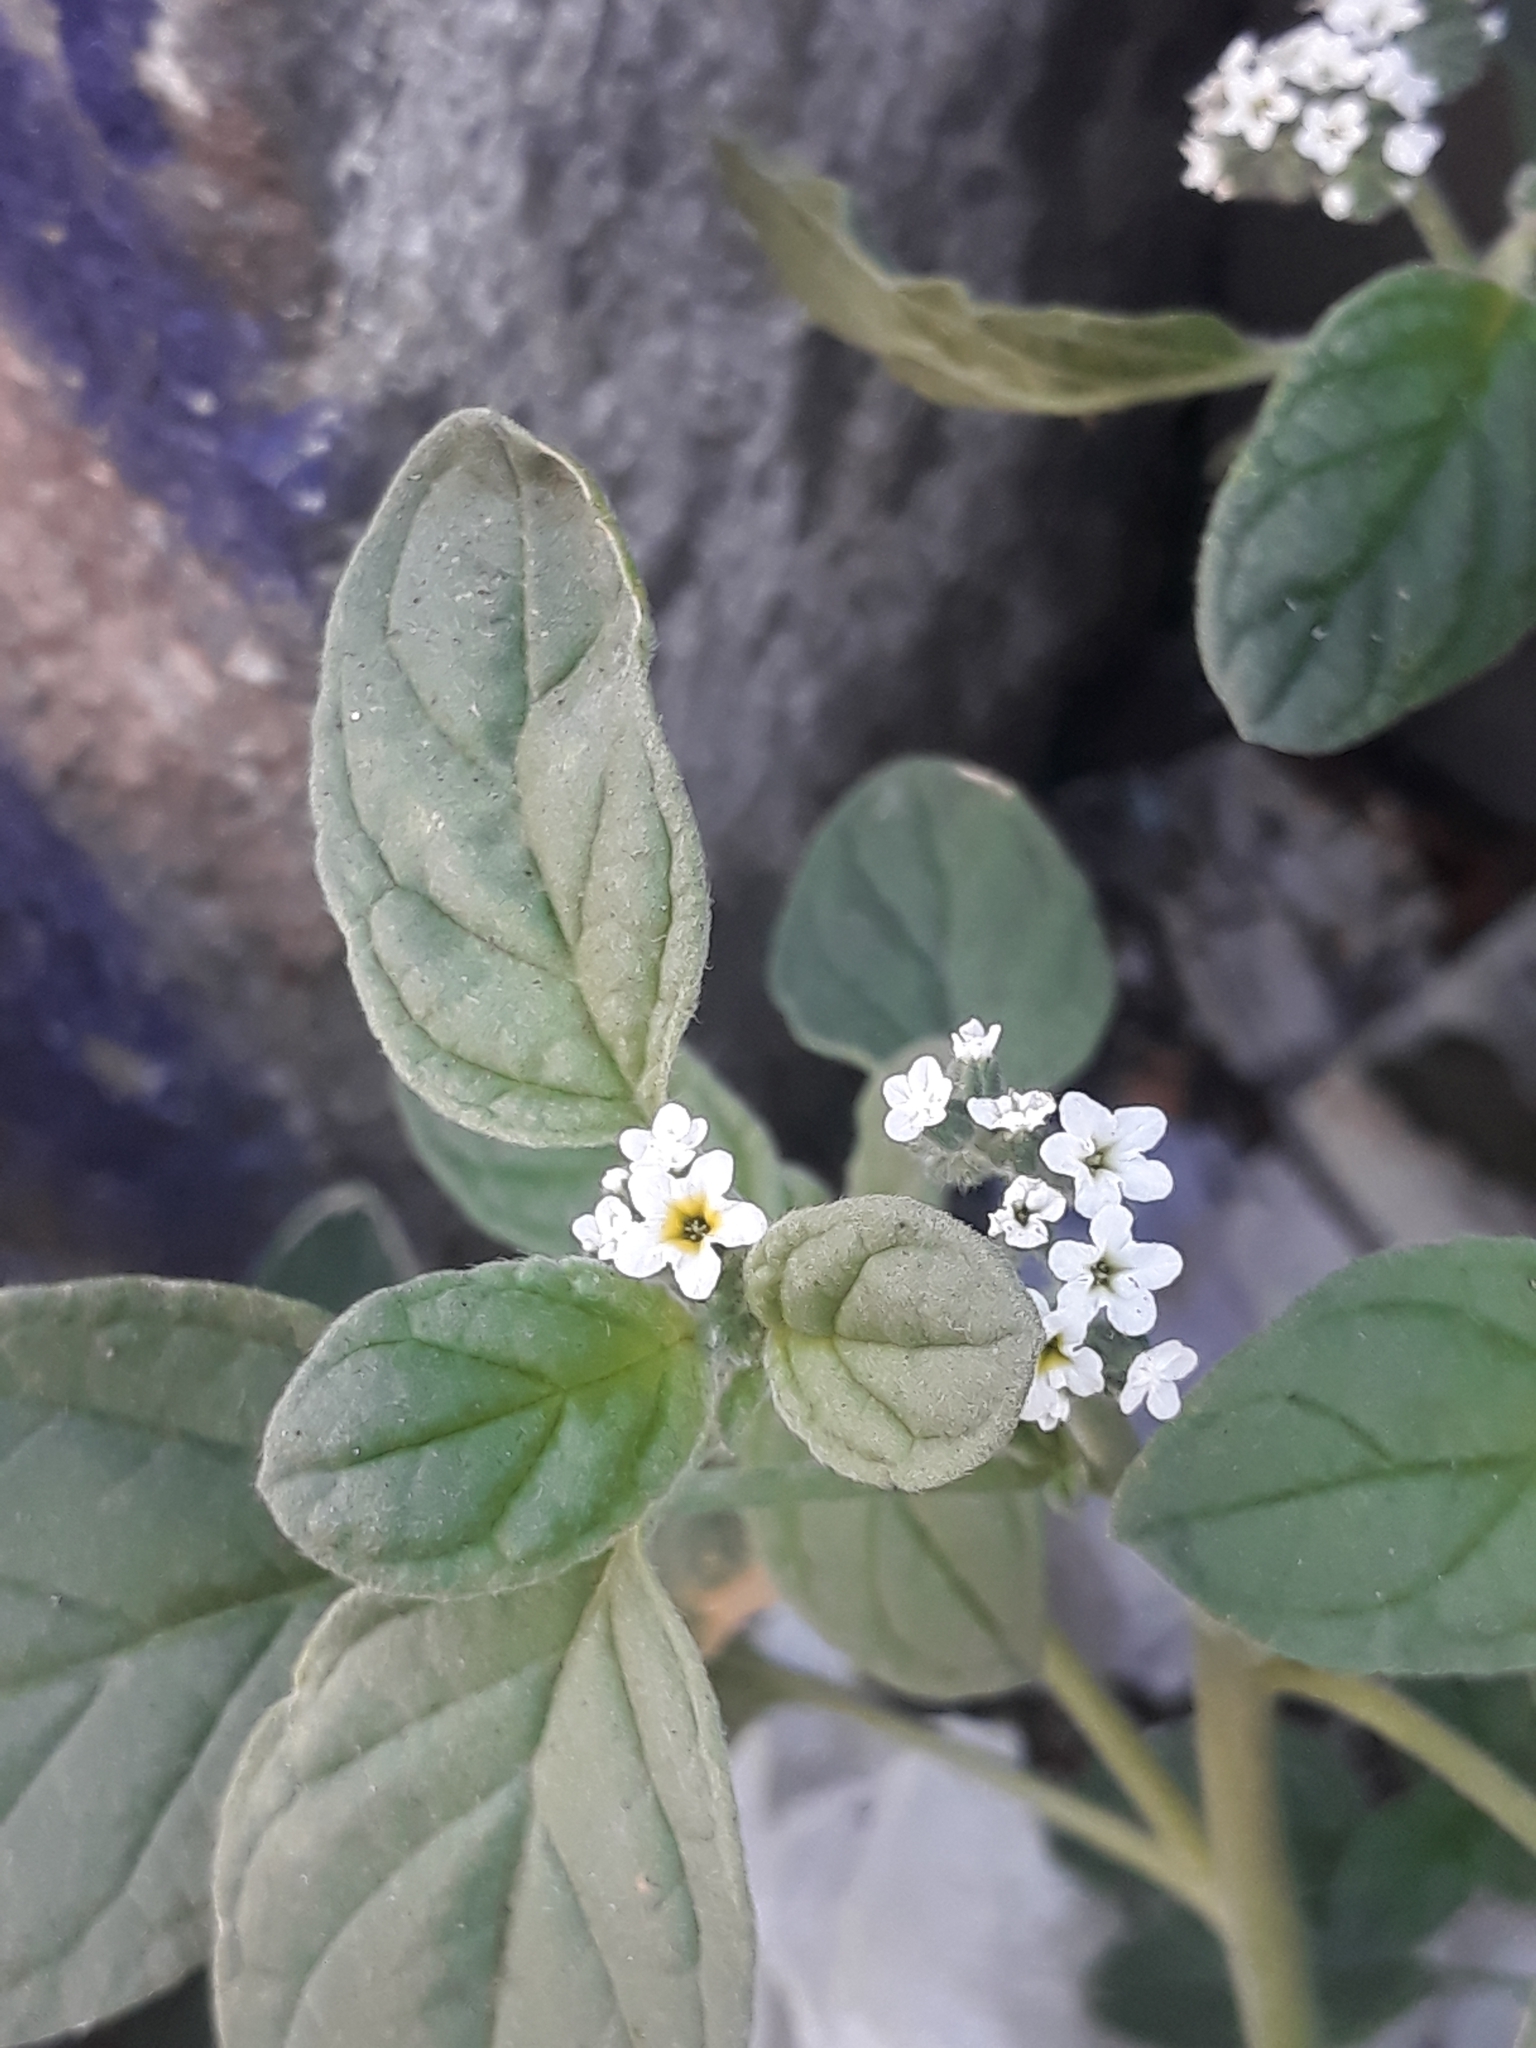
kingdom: Plantae
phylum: Tracheophyta
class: Magnoliopsida
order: Boraginales
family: Heliotropiaceae
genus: Heliotropium
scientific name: Heliotropium europaeum
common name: European heliotrope
